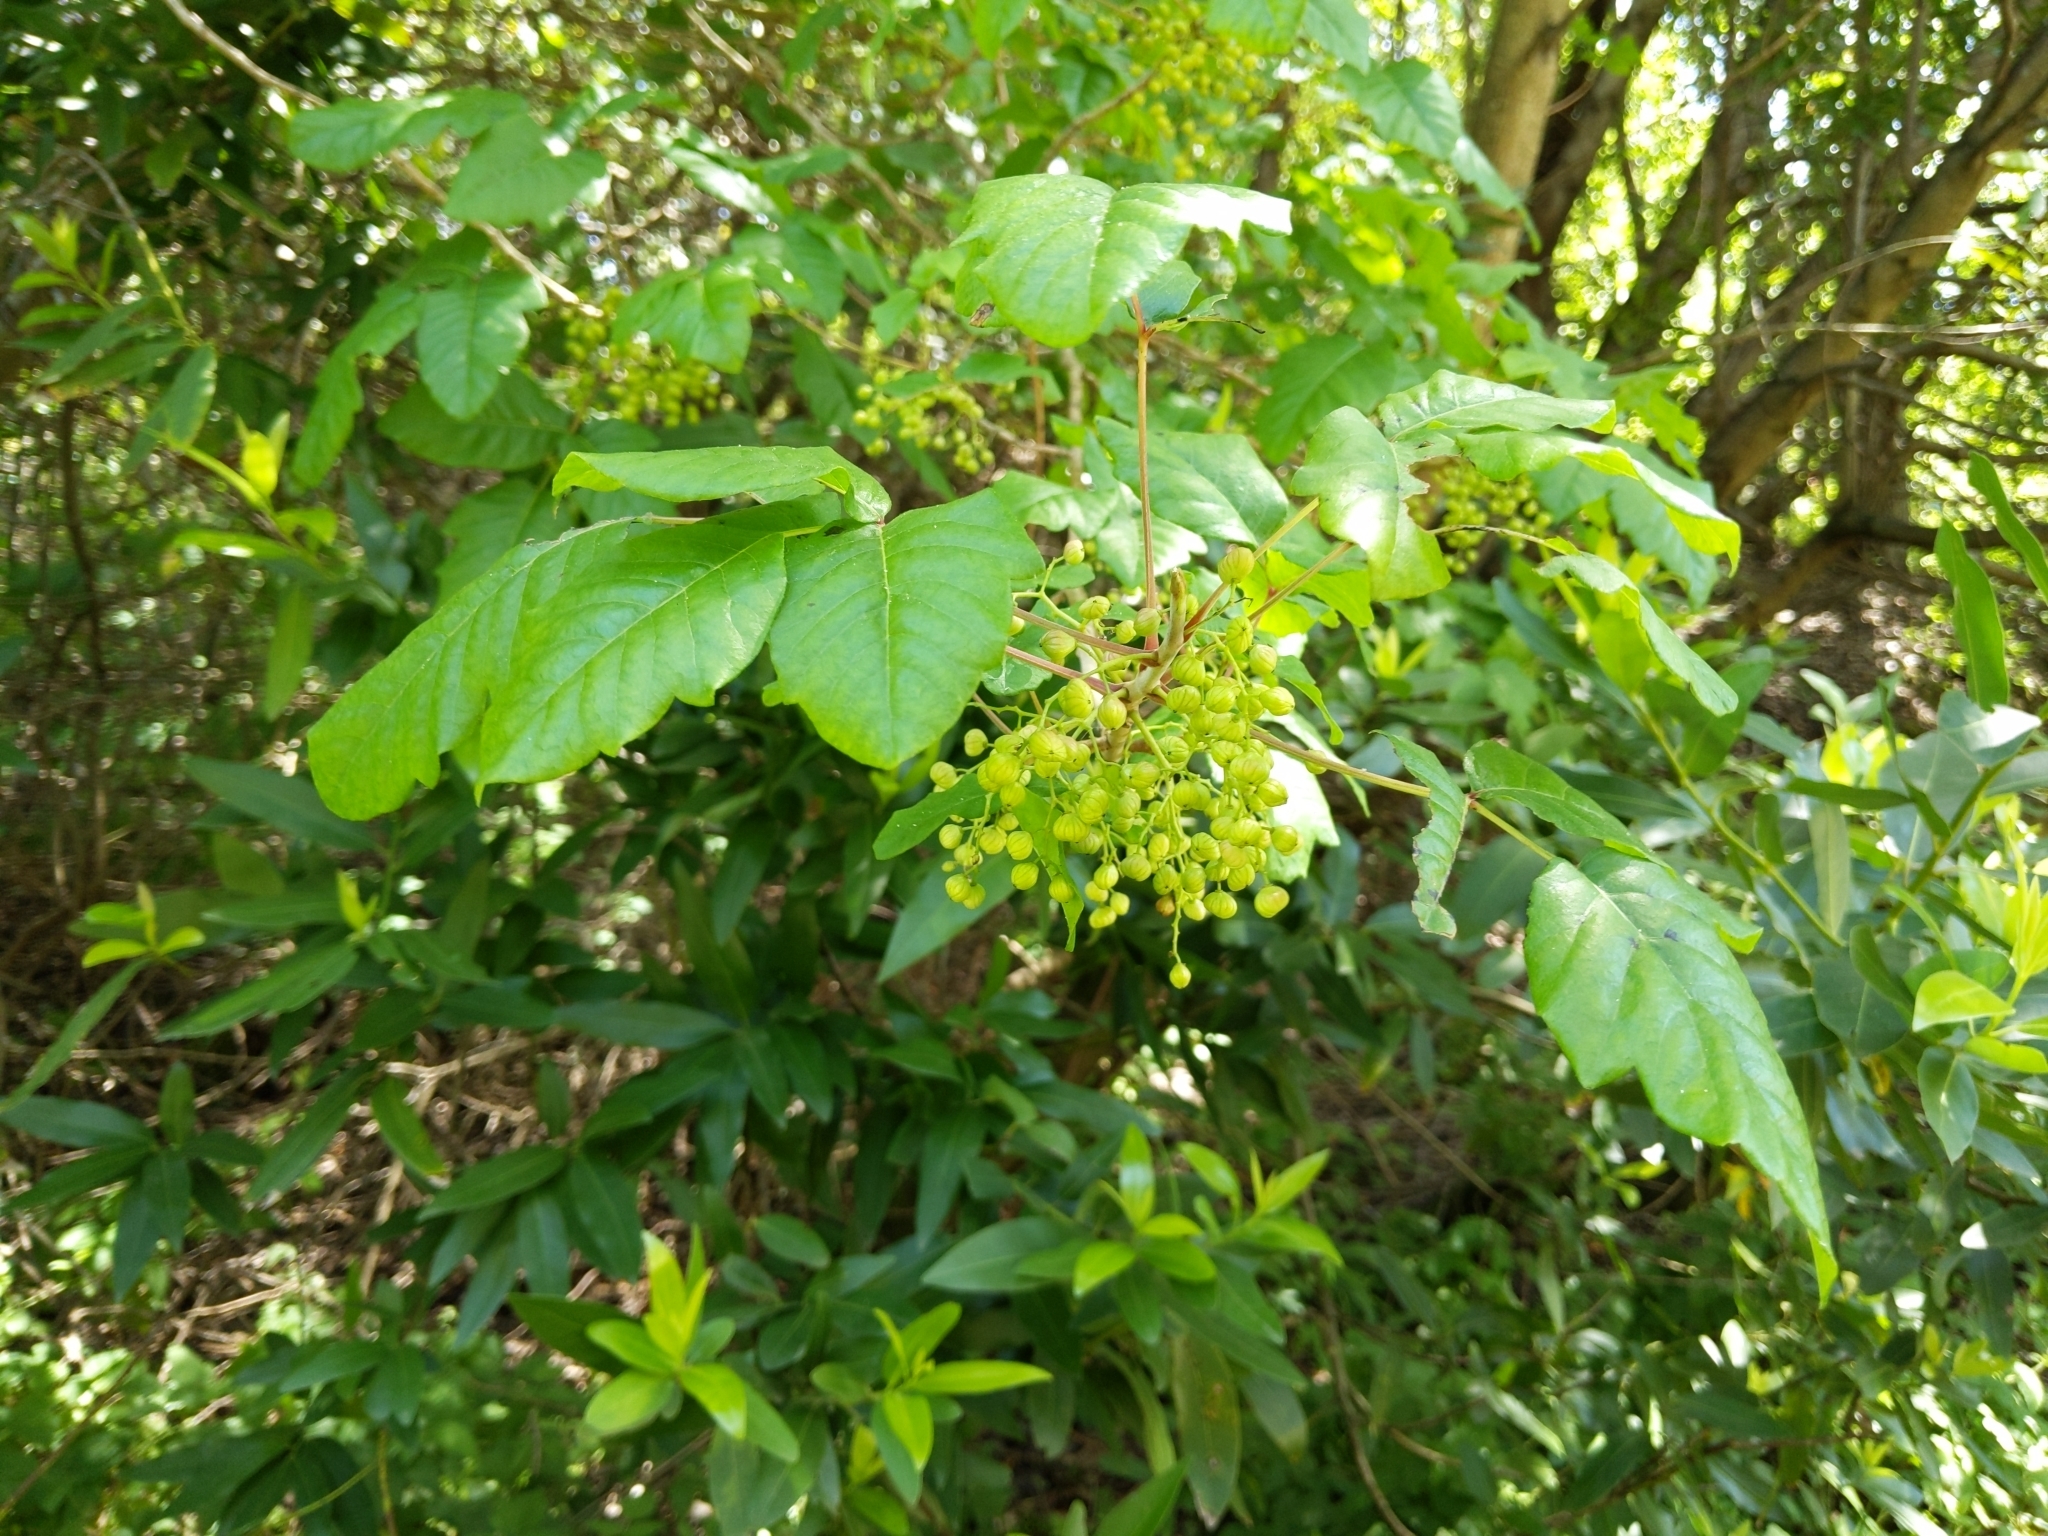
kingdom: Plantae
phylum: Tracheophyta
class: Magnoliopsida
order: Sapindales
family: Anacardiaceae
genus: Toxicodendron
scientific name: Toxicodendron diversilobum
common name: Pacific poison-oak
